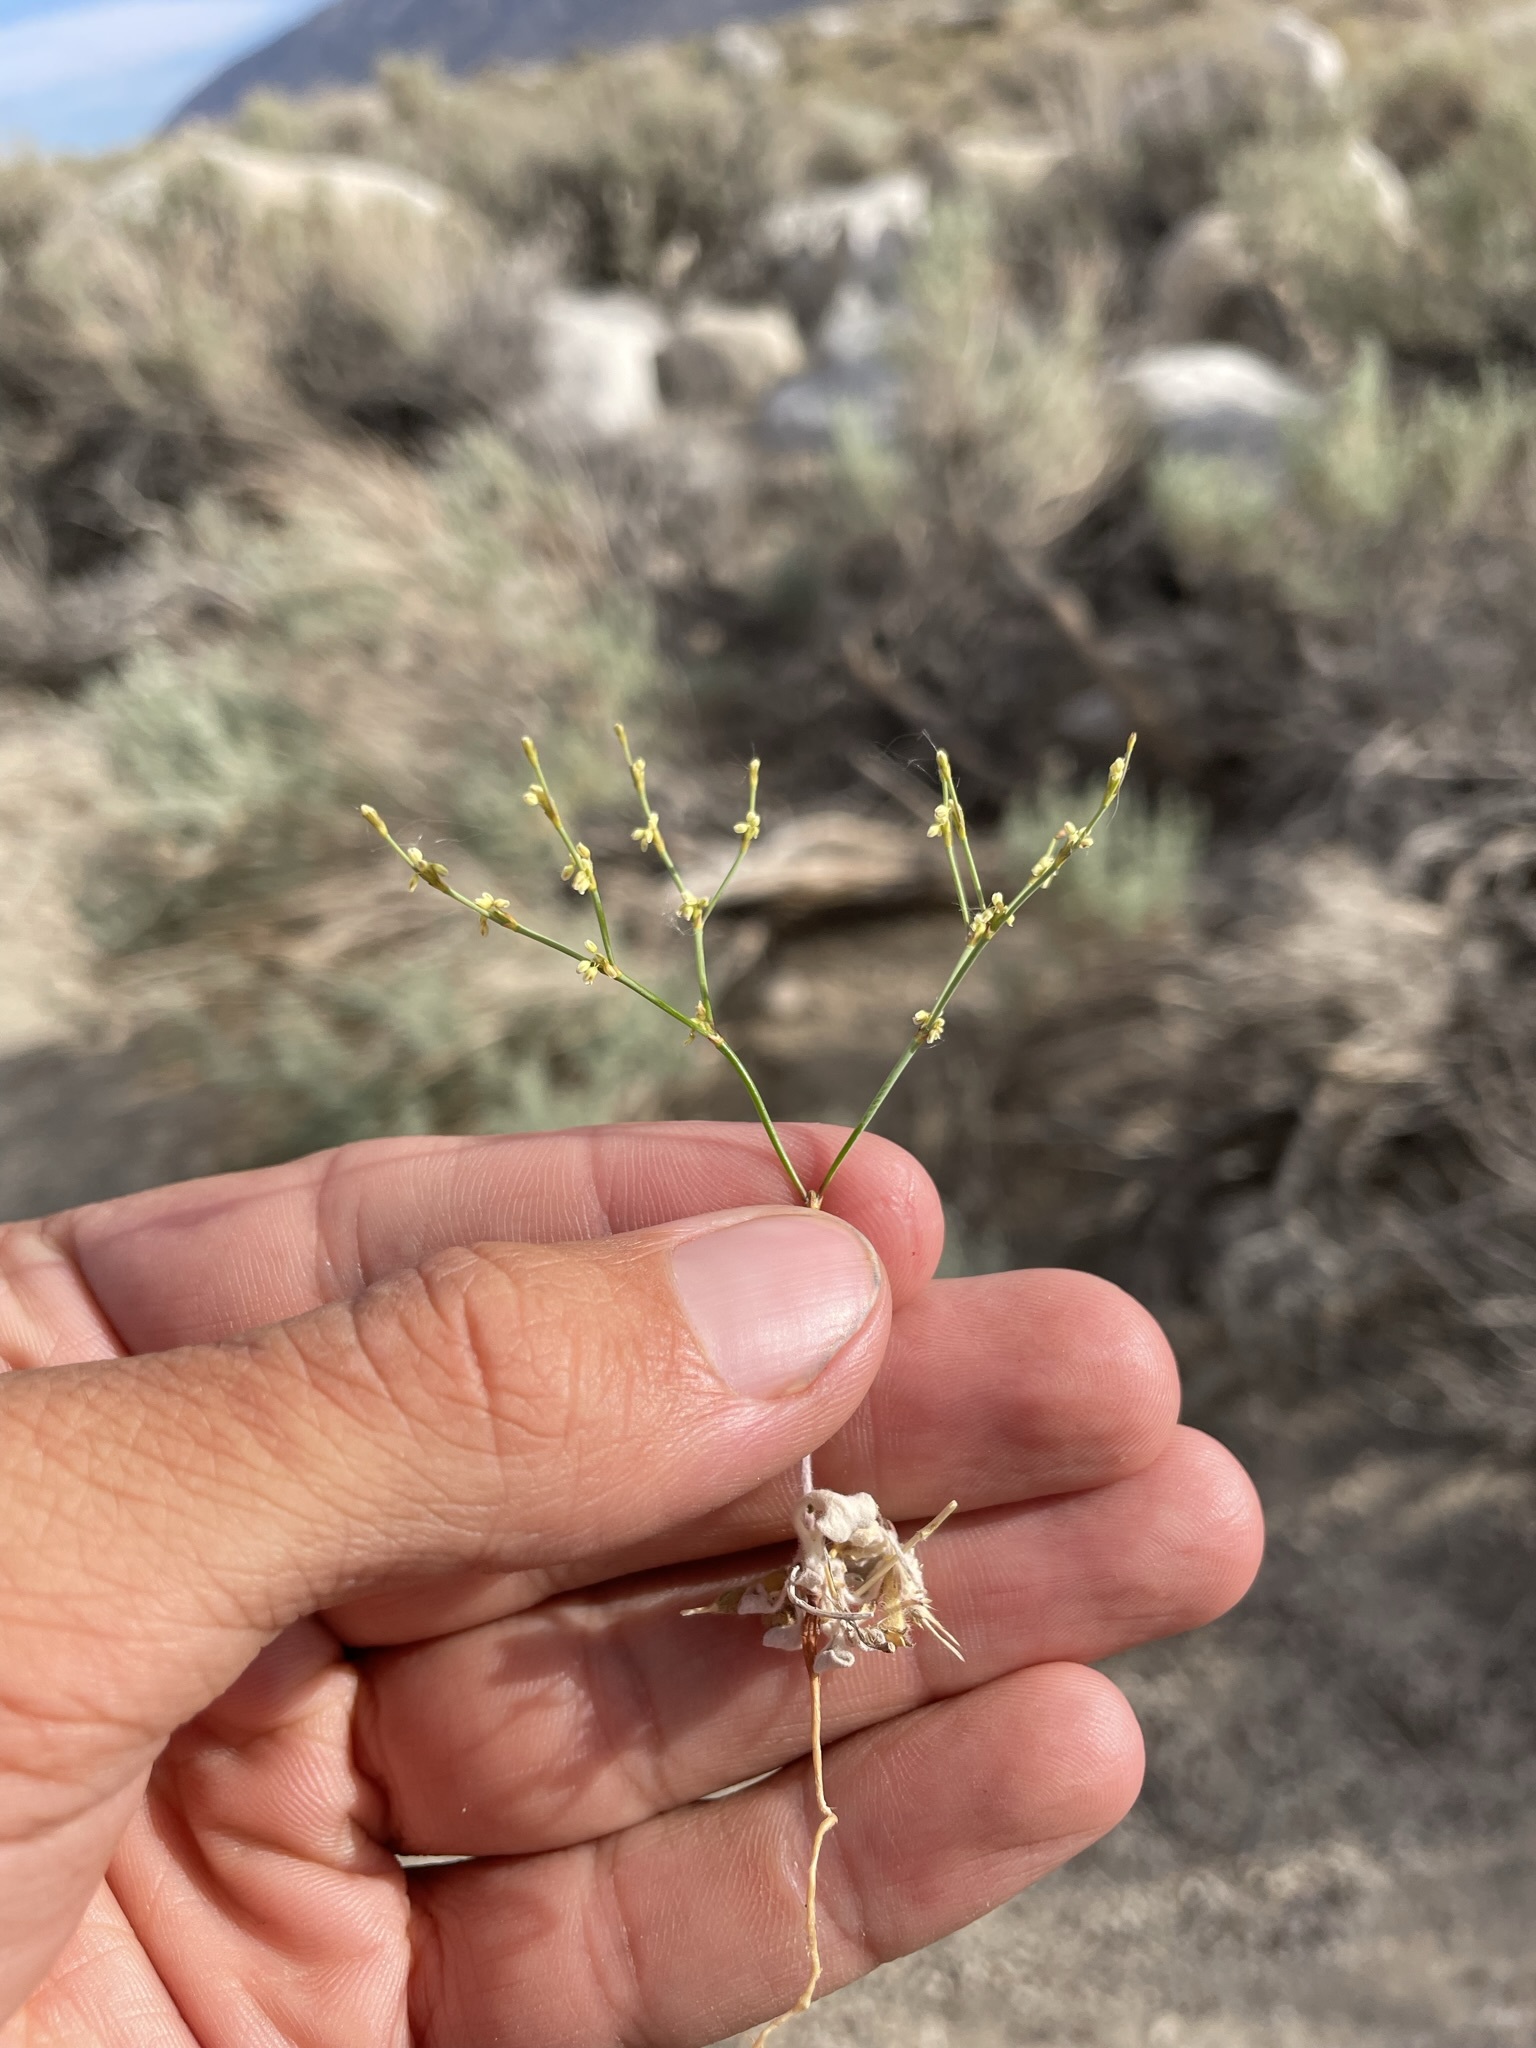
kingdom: Plantae
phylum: Tracheophyta
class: Magnoliopsida
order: Caryophyllales
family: Polygonaceae
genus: Eriogonum
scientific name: Eriogonum brachyanthum
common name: Short-flower wild buckwheat
